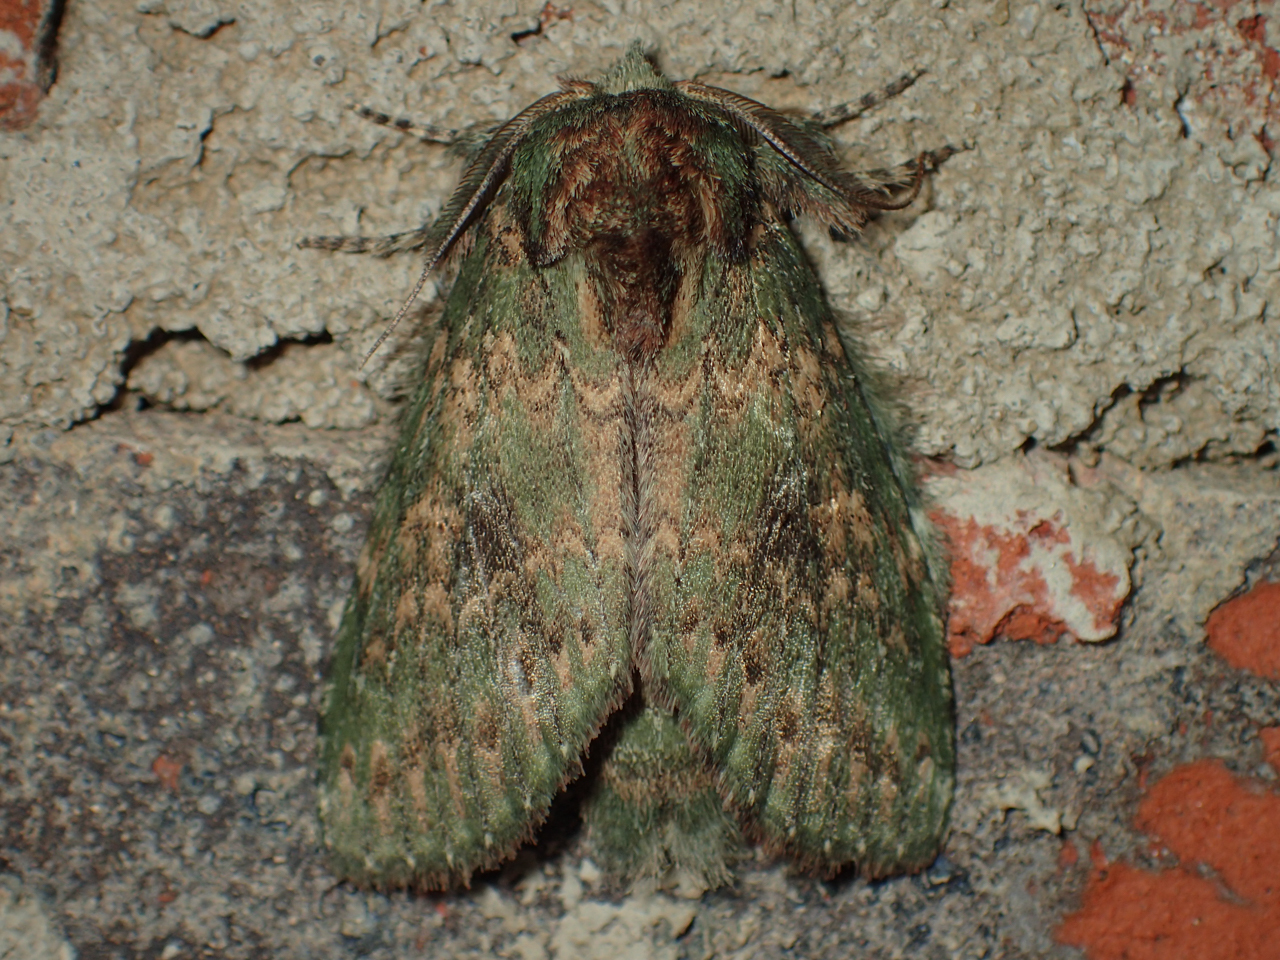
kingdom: Animalia
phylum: Arthropoda
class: Insecta
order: Lepidoptera
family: Notodontidae
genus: Disphragis
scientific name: Disphragis Cecrita biundata
